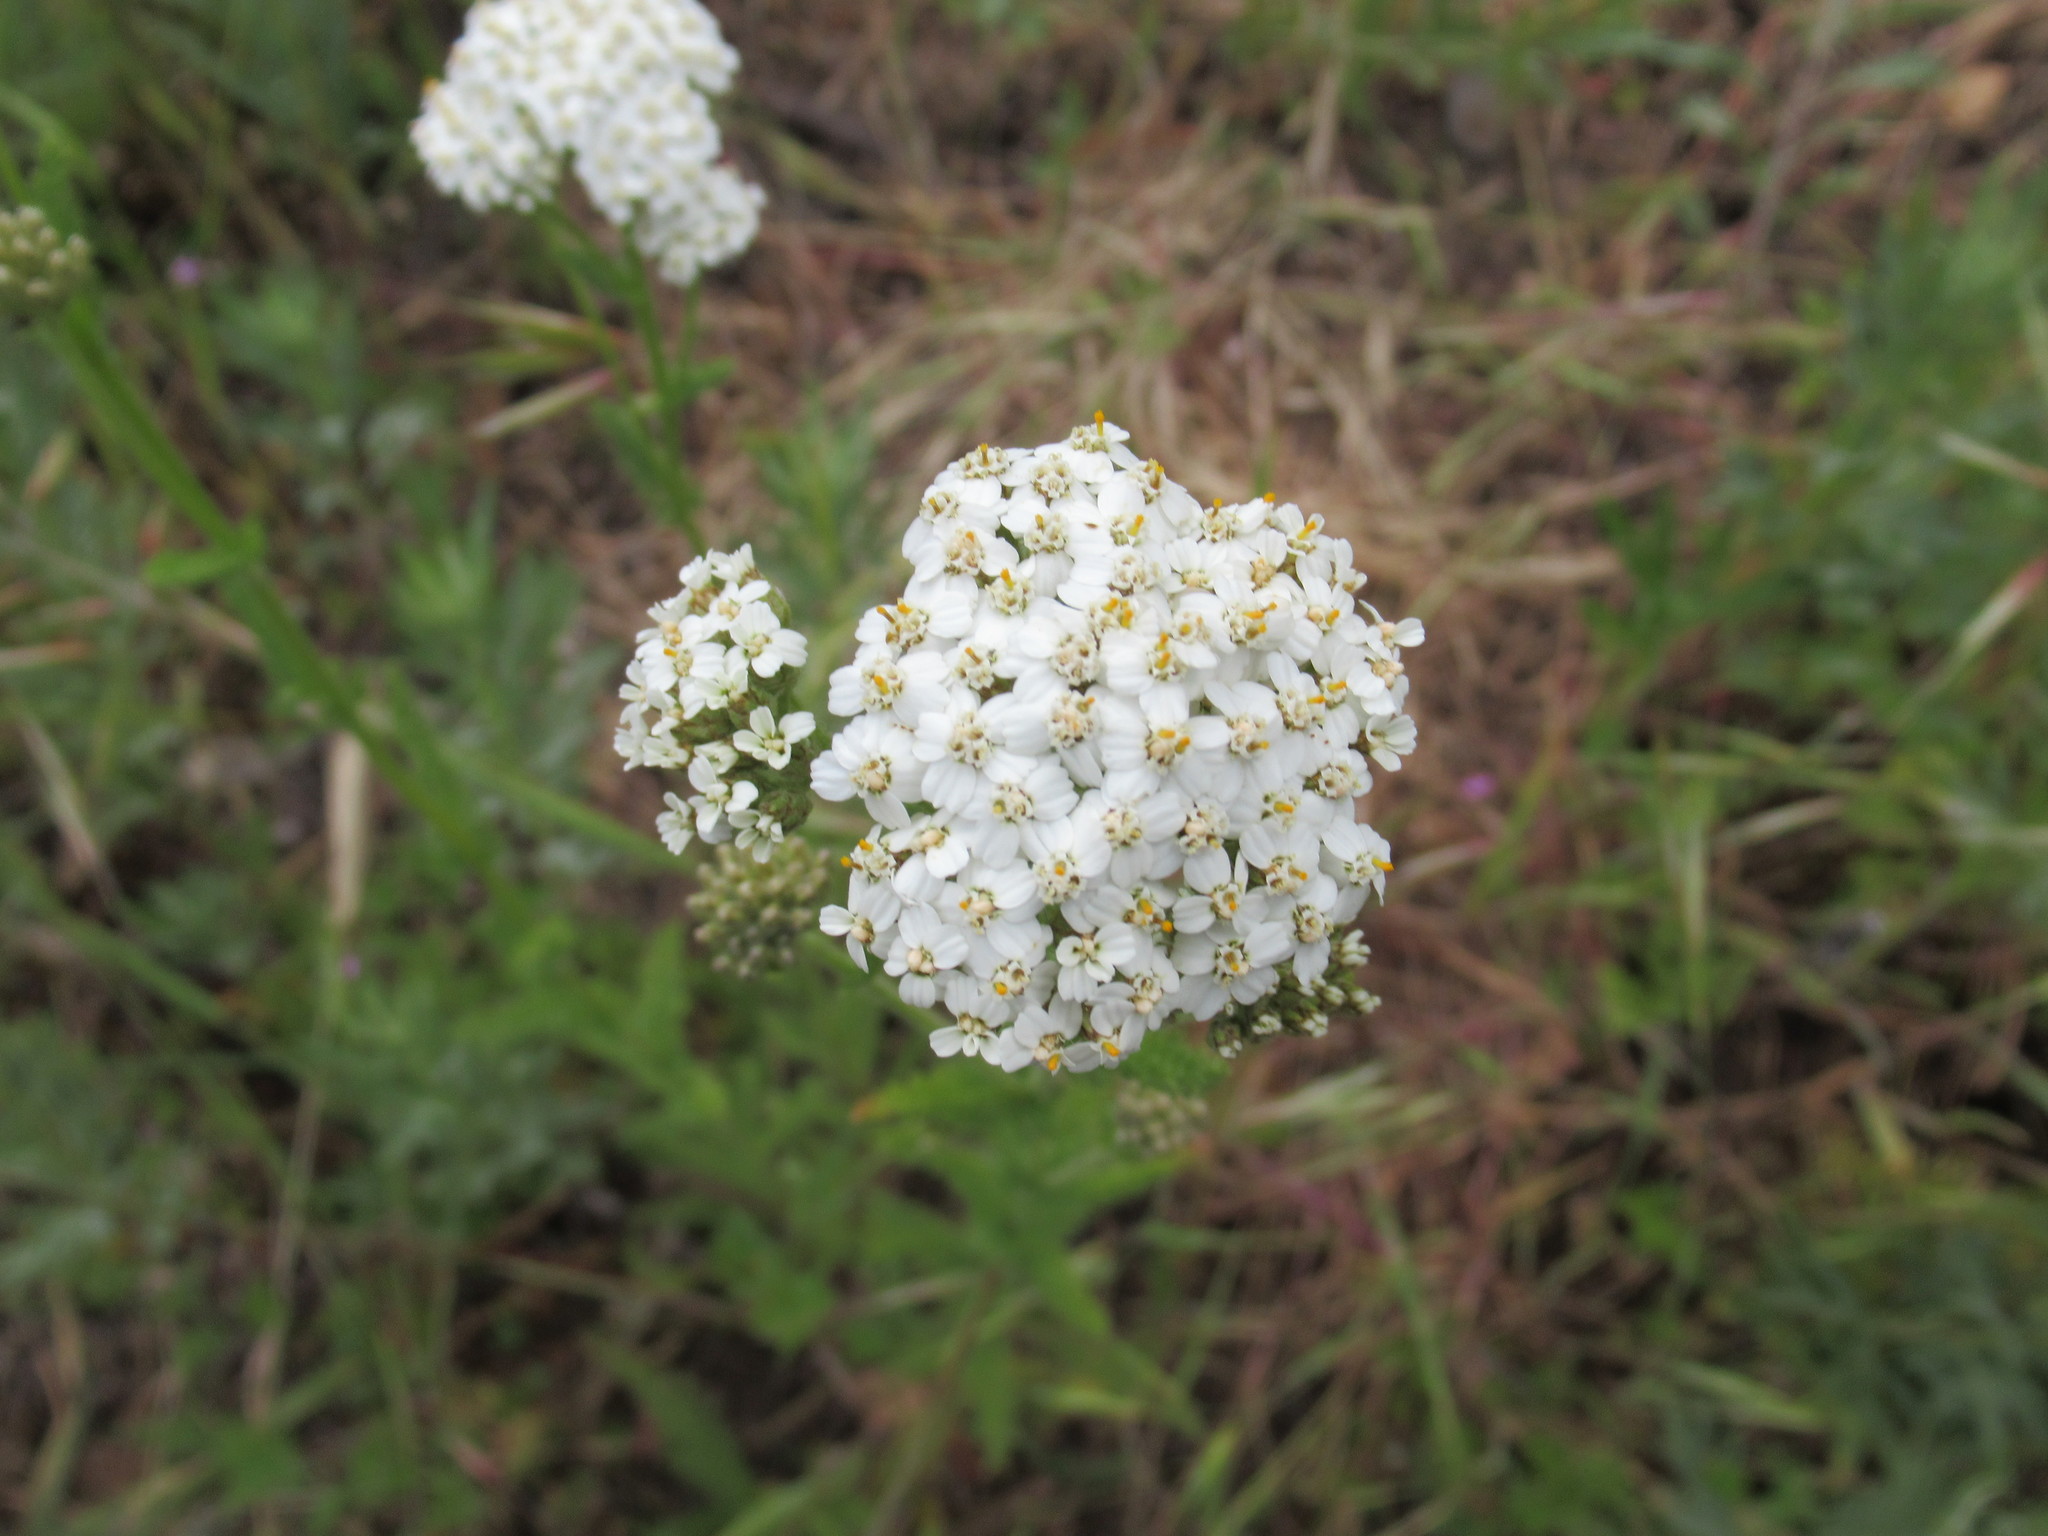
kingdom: Plantae
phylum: Tracheophyta
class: Magnoliopsida
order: Asterales
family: Asteraceae
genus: Achillea
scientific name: Achillea millefolium
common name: Yarrow
